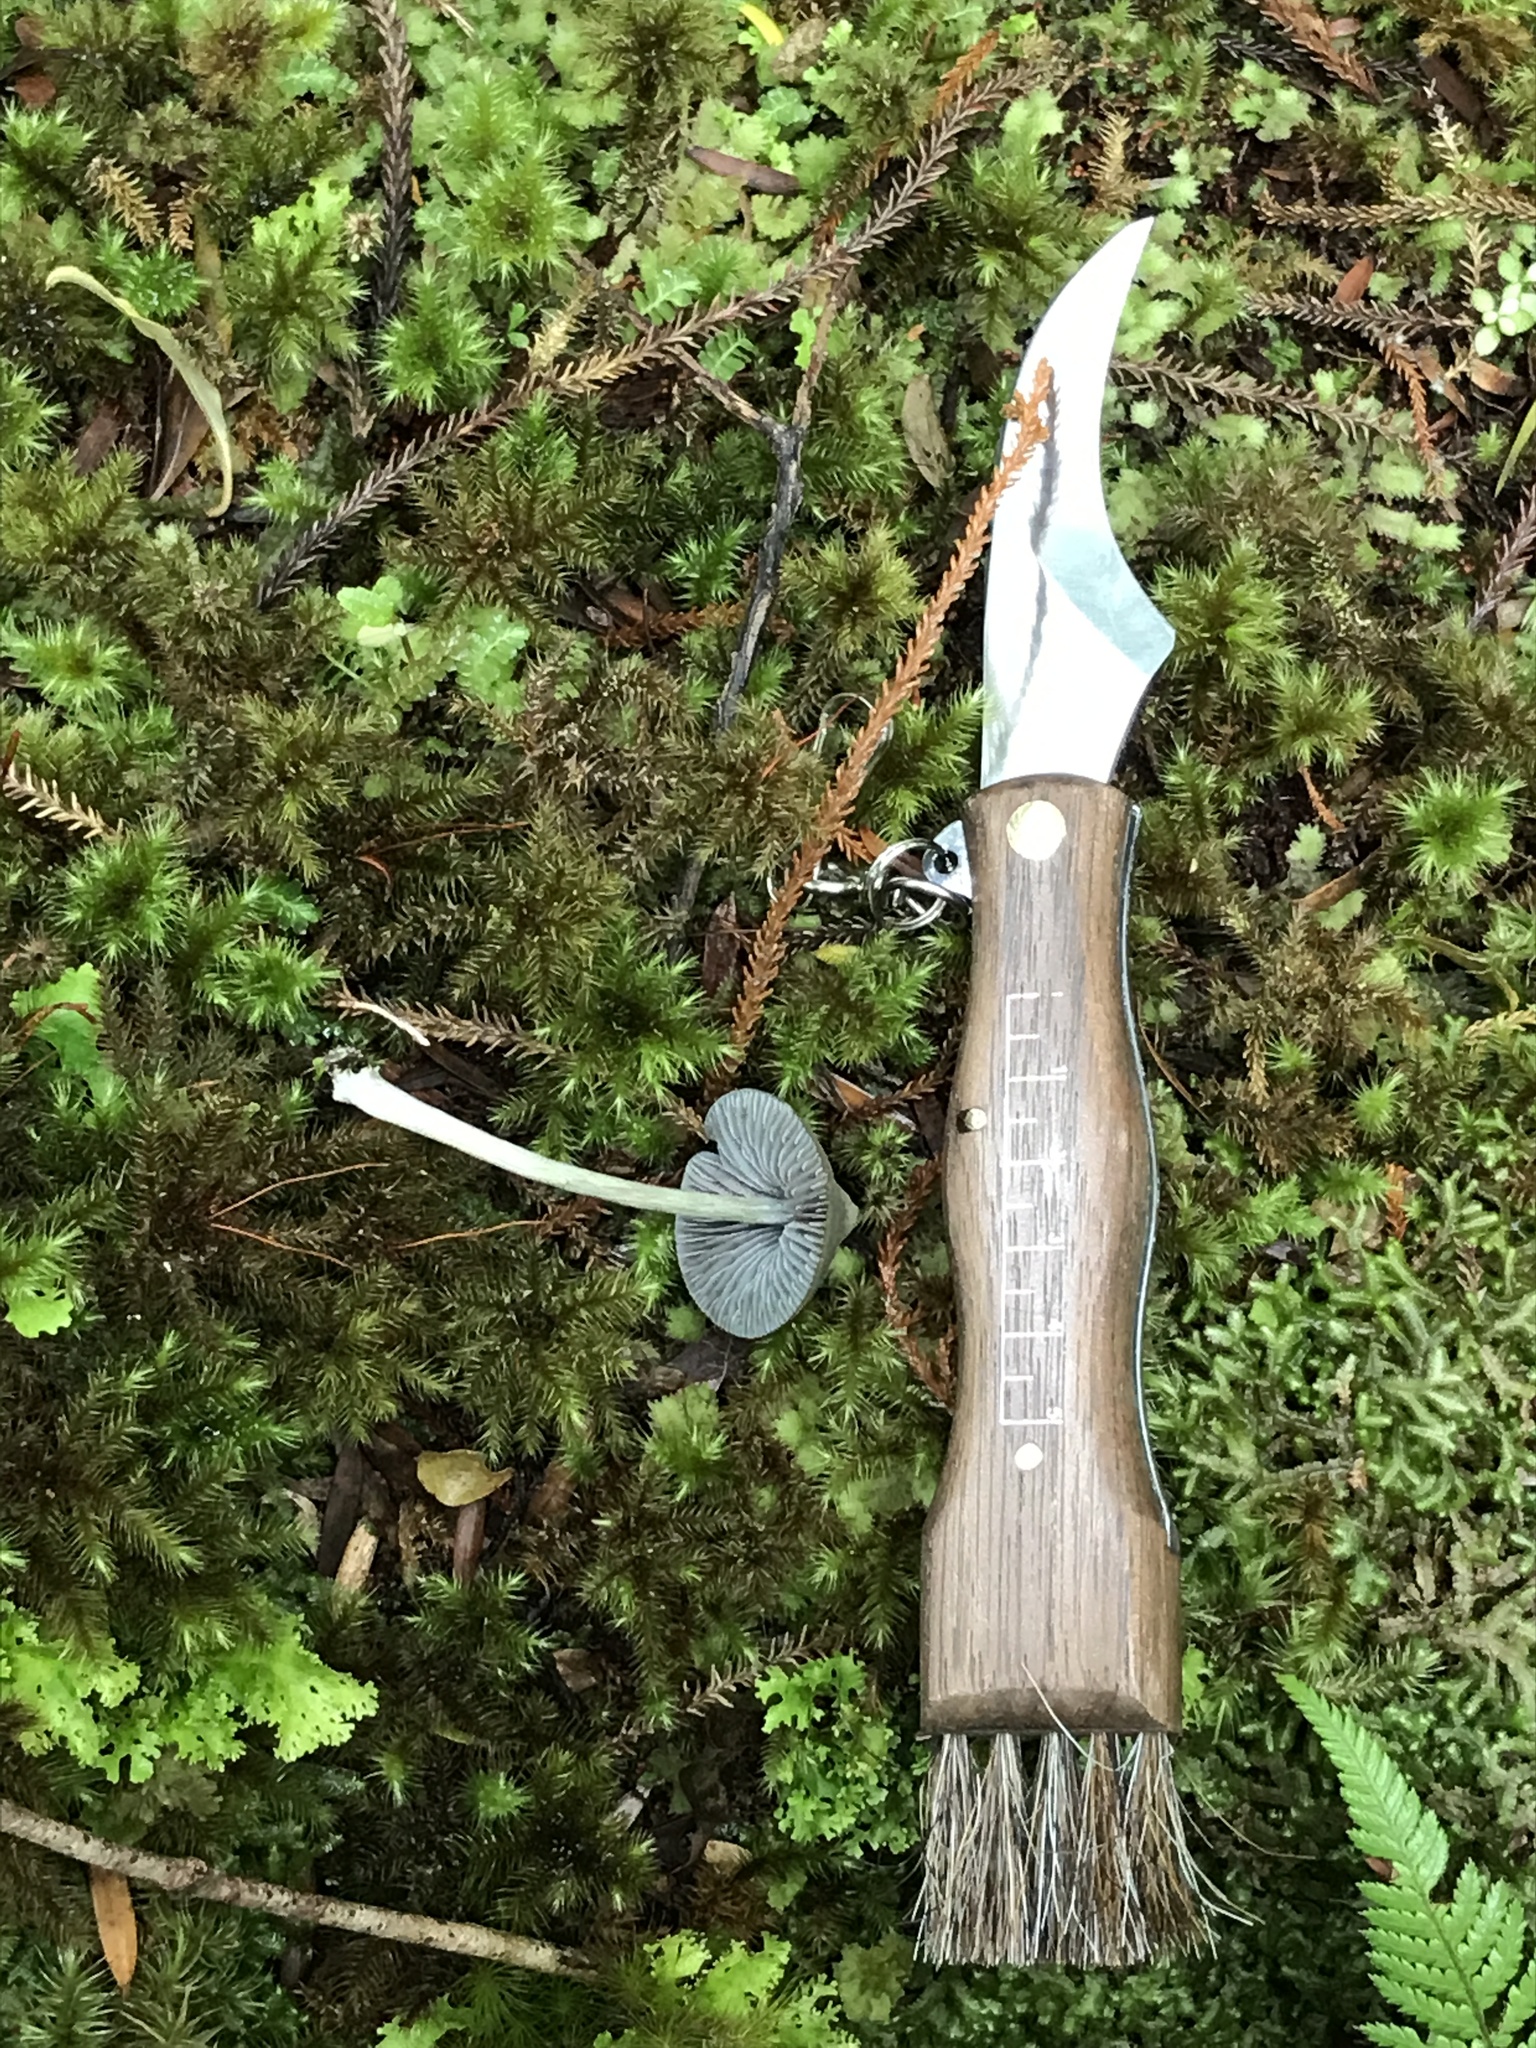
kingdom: Fungi
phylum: Basidiomycota
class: Agaricomycetes
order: Agaricales
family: Entolomataceae
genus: Entoloma
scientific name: Entoloma hochstetteri
